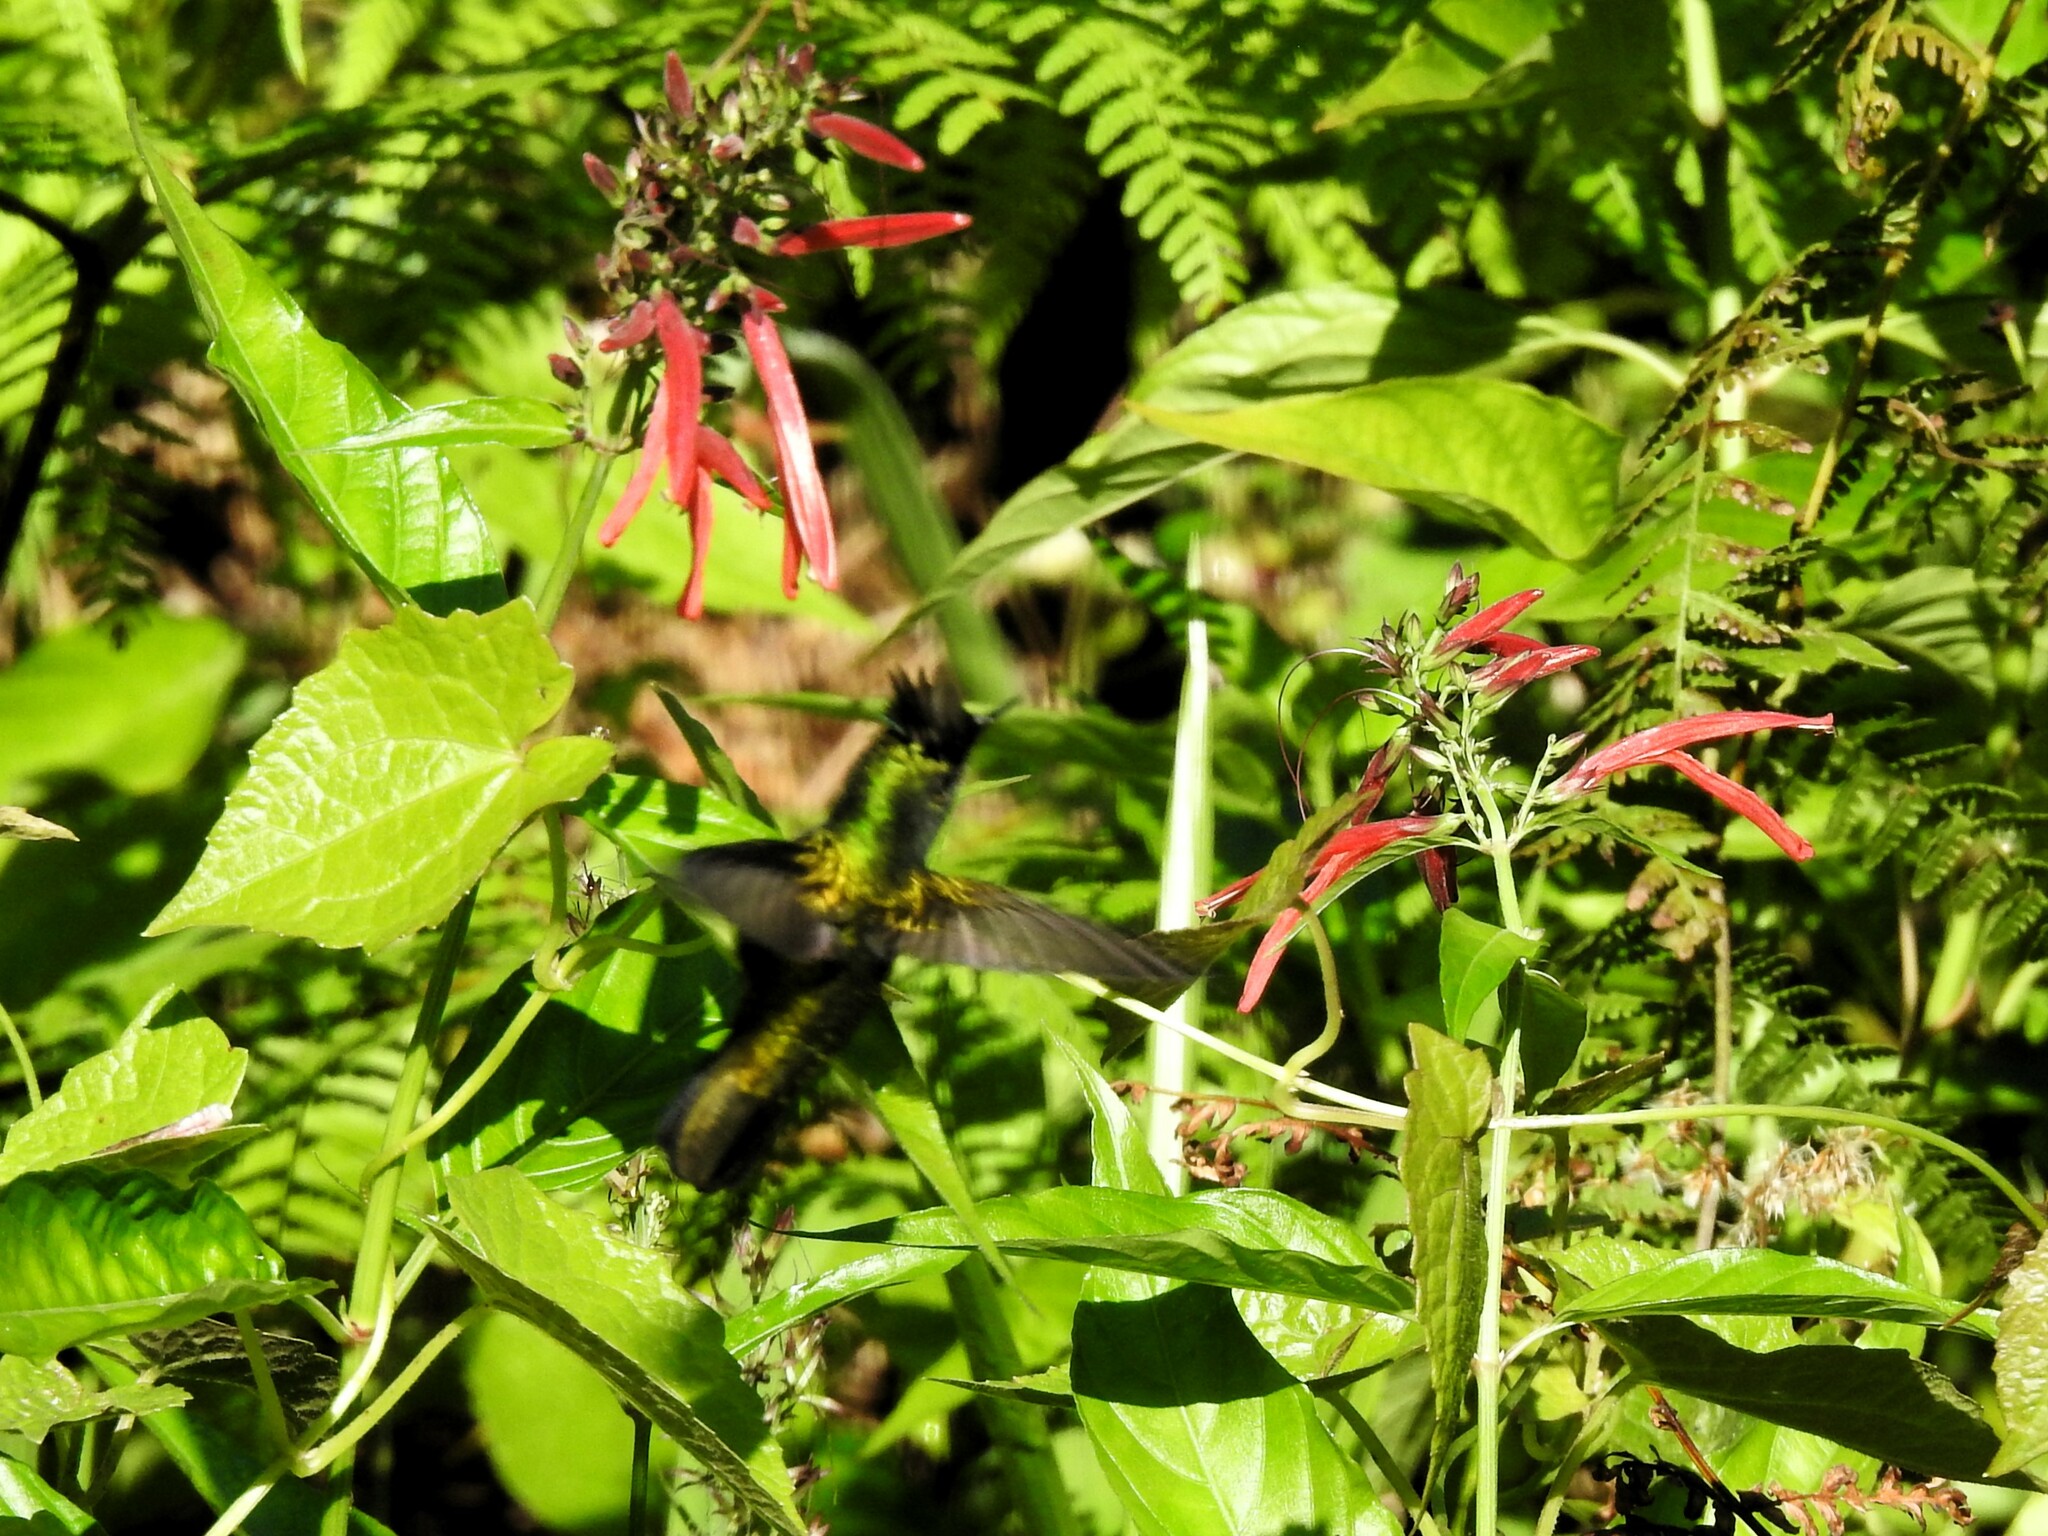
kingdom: Animalia
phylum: Chordata
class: Aves
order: Apodiformes
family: Trochilidae
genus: Orthorhyncus
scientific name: Orthorhyncus cristatus
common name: Antillean crested hummingbird
